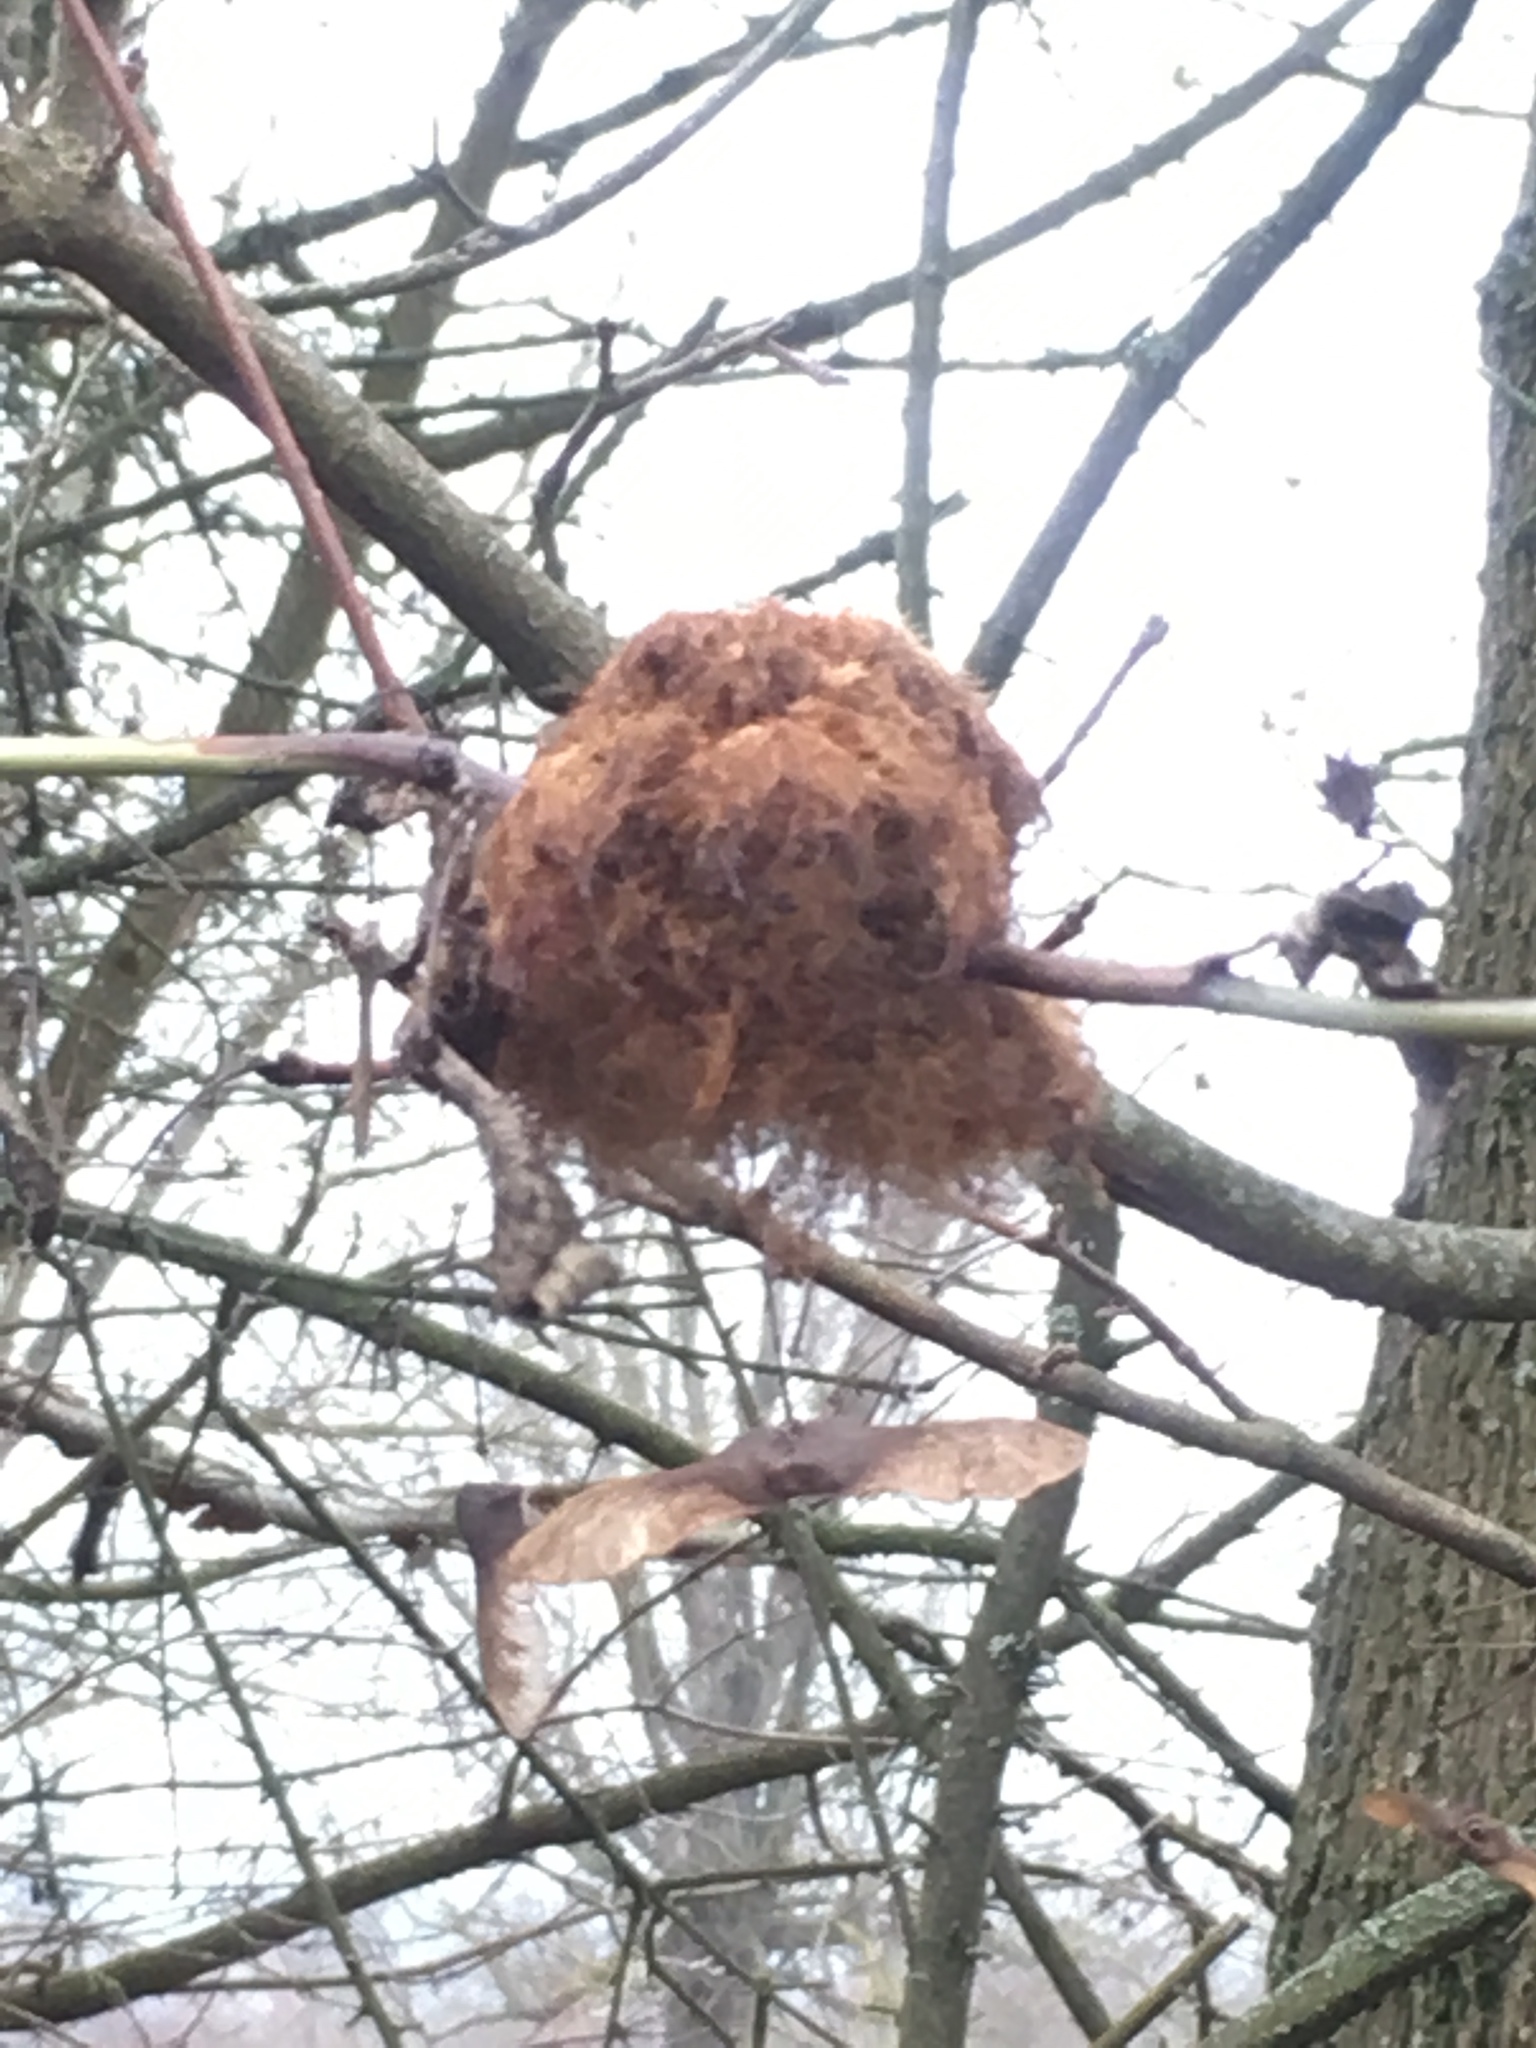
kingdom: Animalia
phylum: Arthropoda
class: Insecta
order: Hymenoptera
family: Cynipidae
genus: Diplolepis
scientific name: Diplolepis rosae
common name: Bedeguar gall
